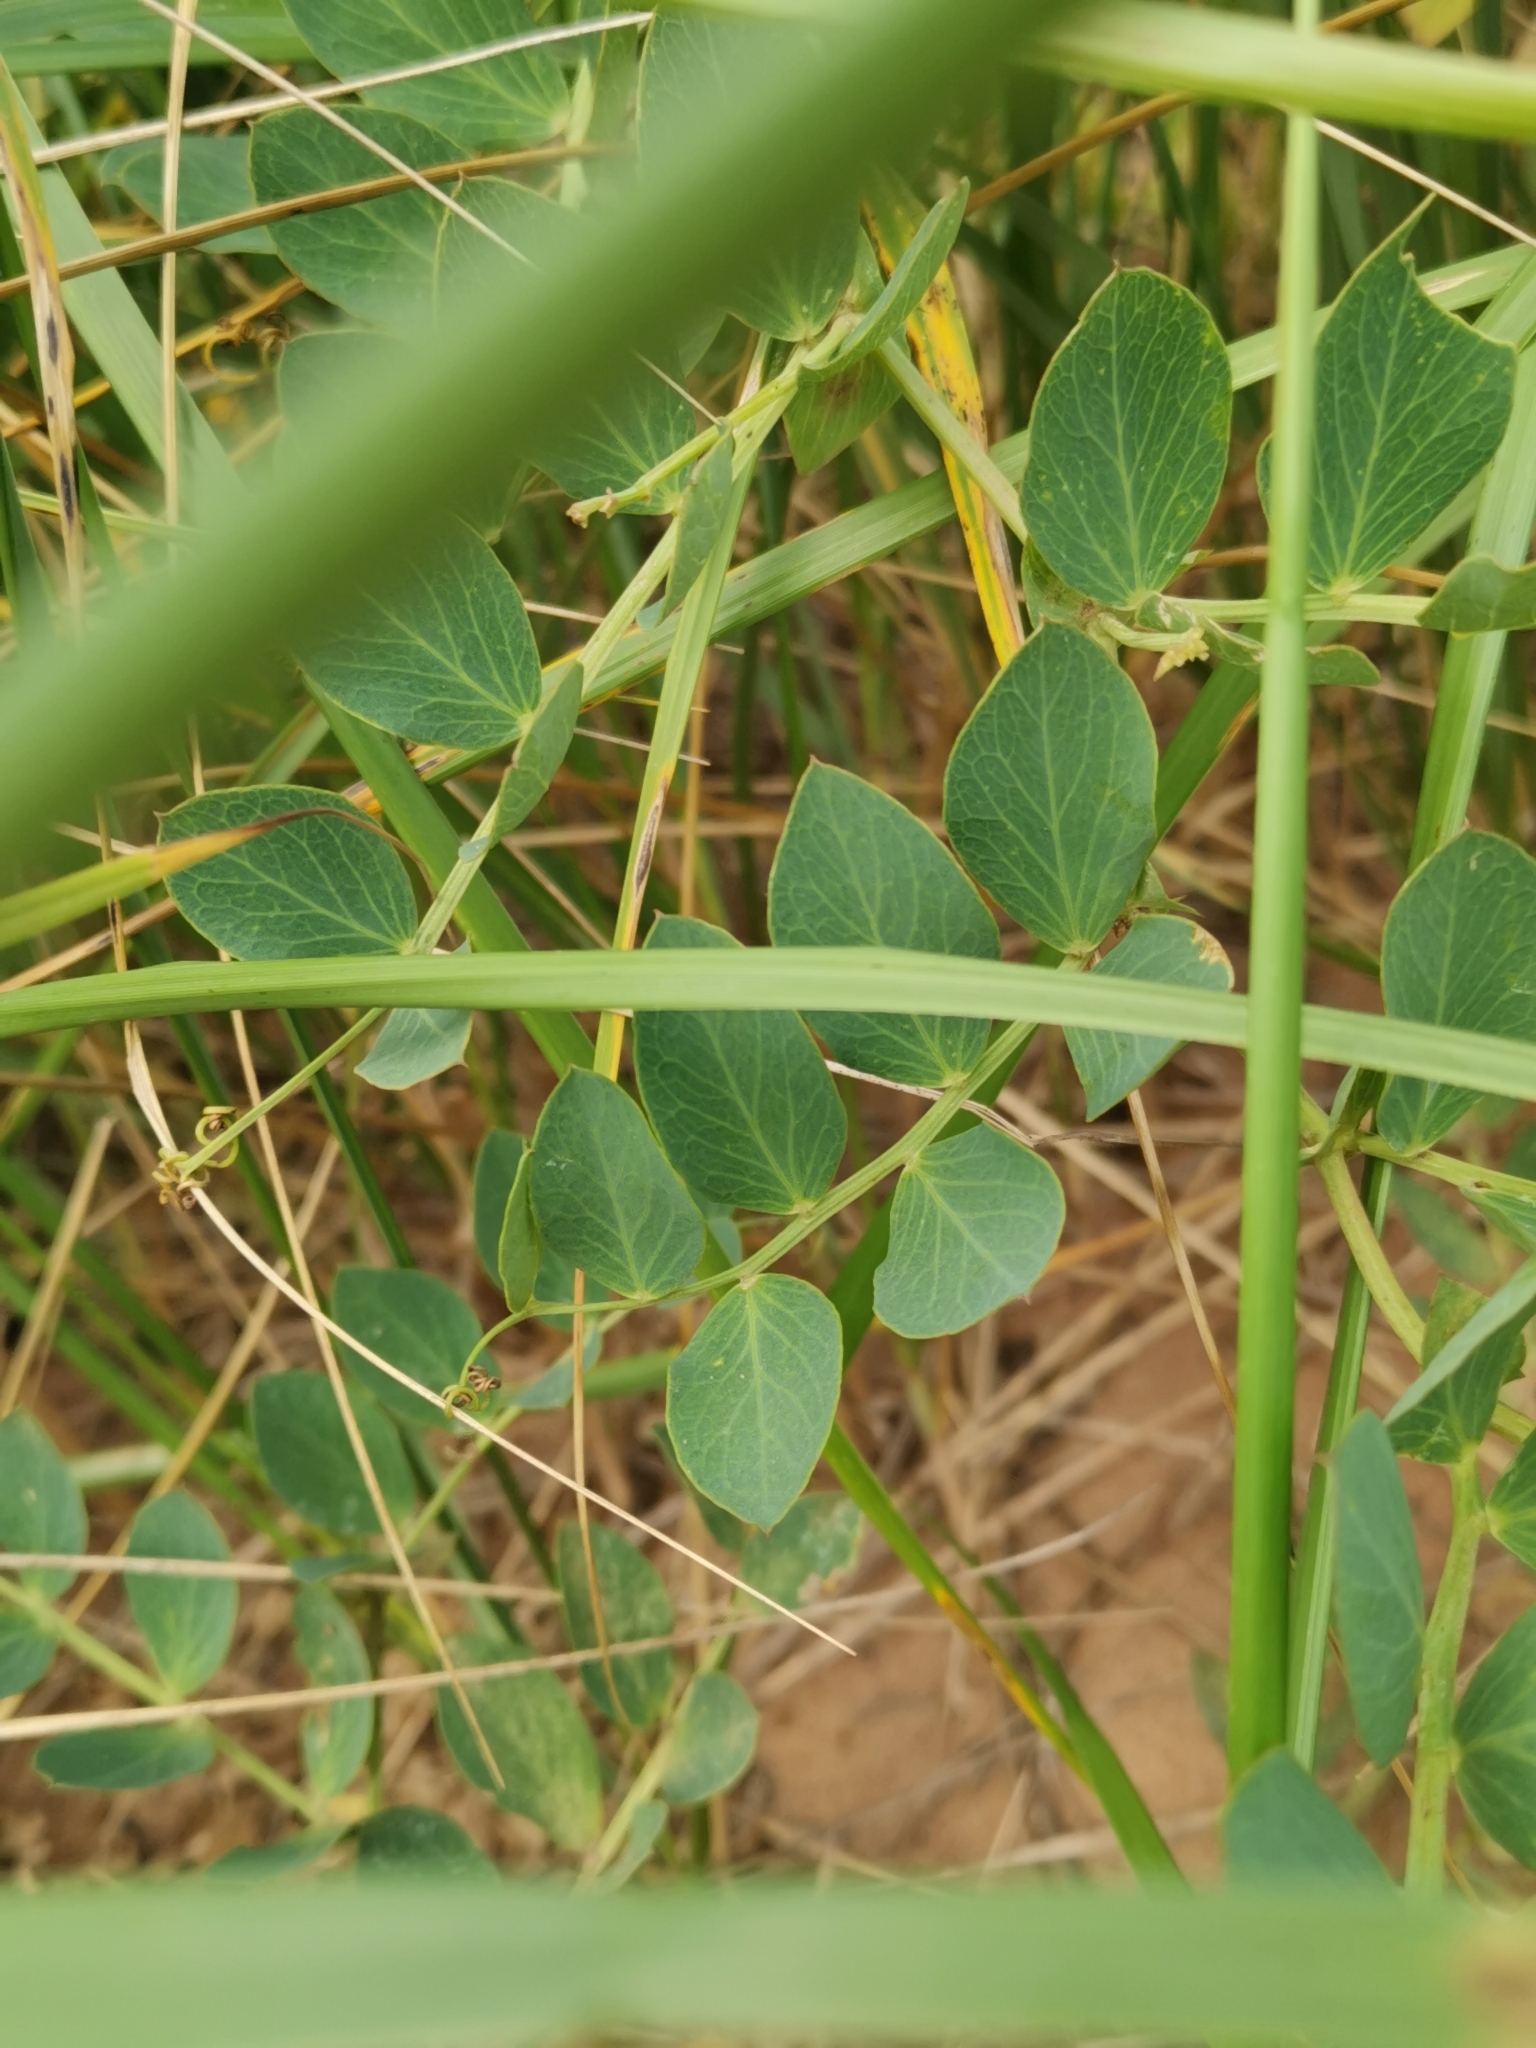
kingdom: Plantae
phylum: Tracheophyta
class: Magnoliopsida
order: Fabales
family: Fabaceae
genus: Lathyrus
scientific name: Lathyrus japonicus
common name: Sea pea
